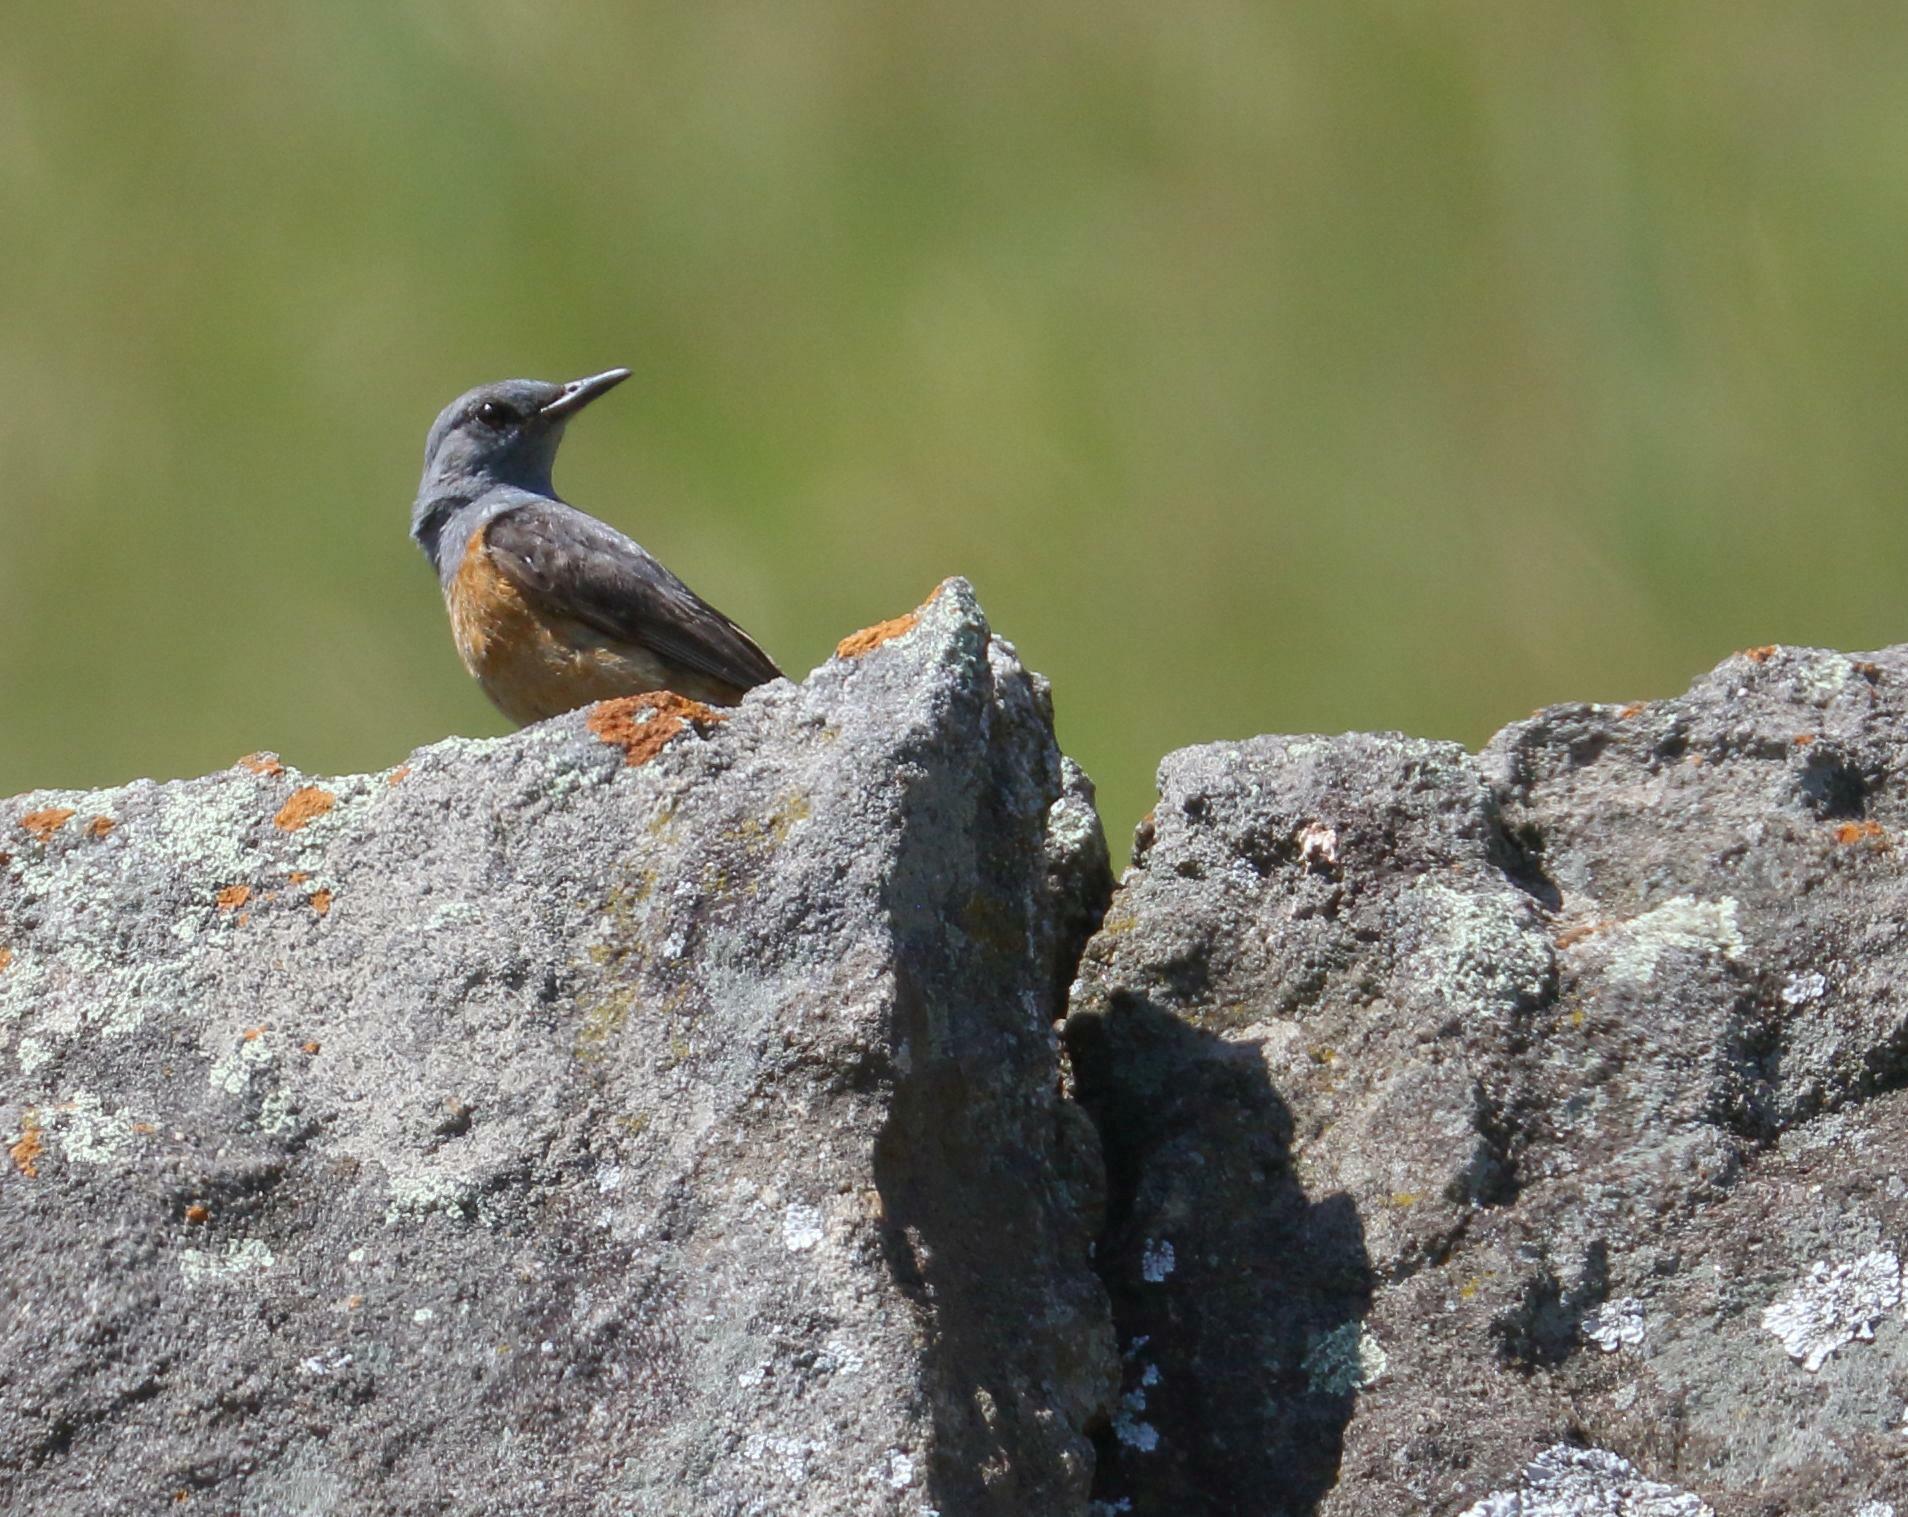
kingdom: Animalia
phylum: Chordata
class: Aves
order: Passeriformes
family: Muscicapidae
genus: Monticola
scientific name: Monticola explorator
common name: Sentinel rock thrush
